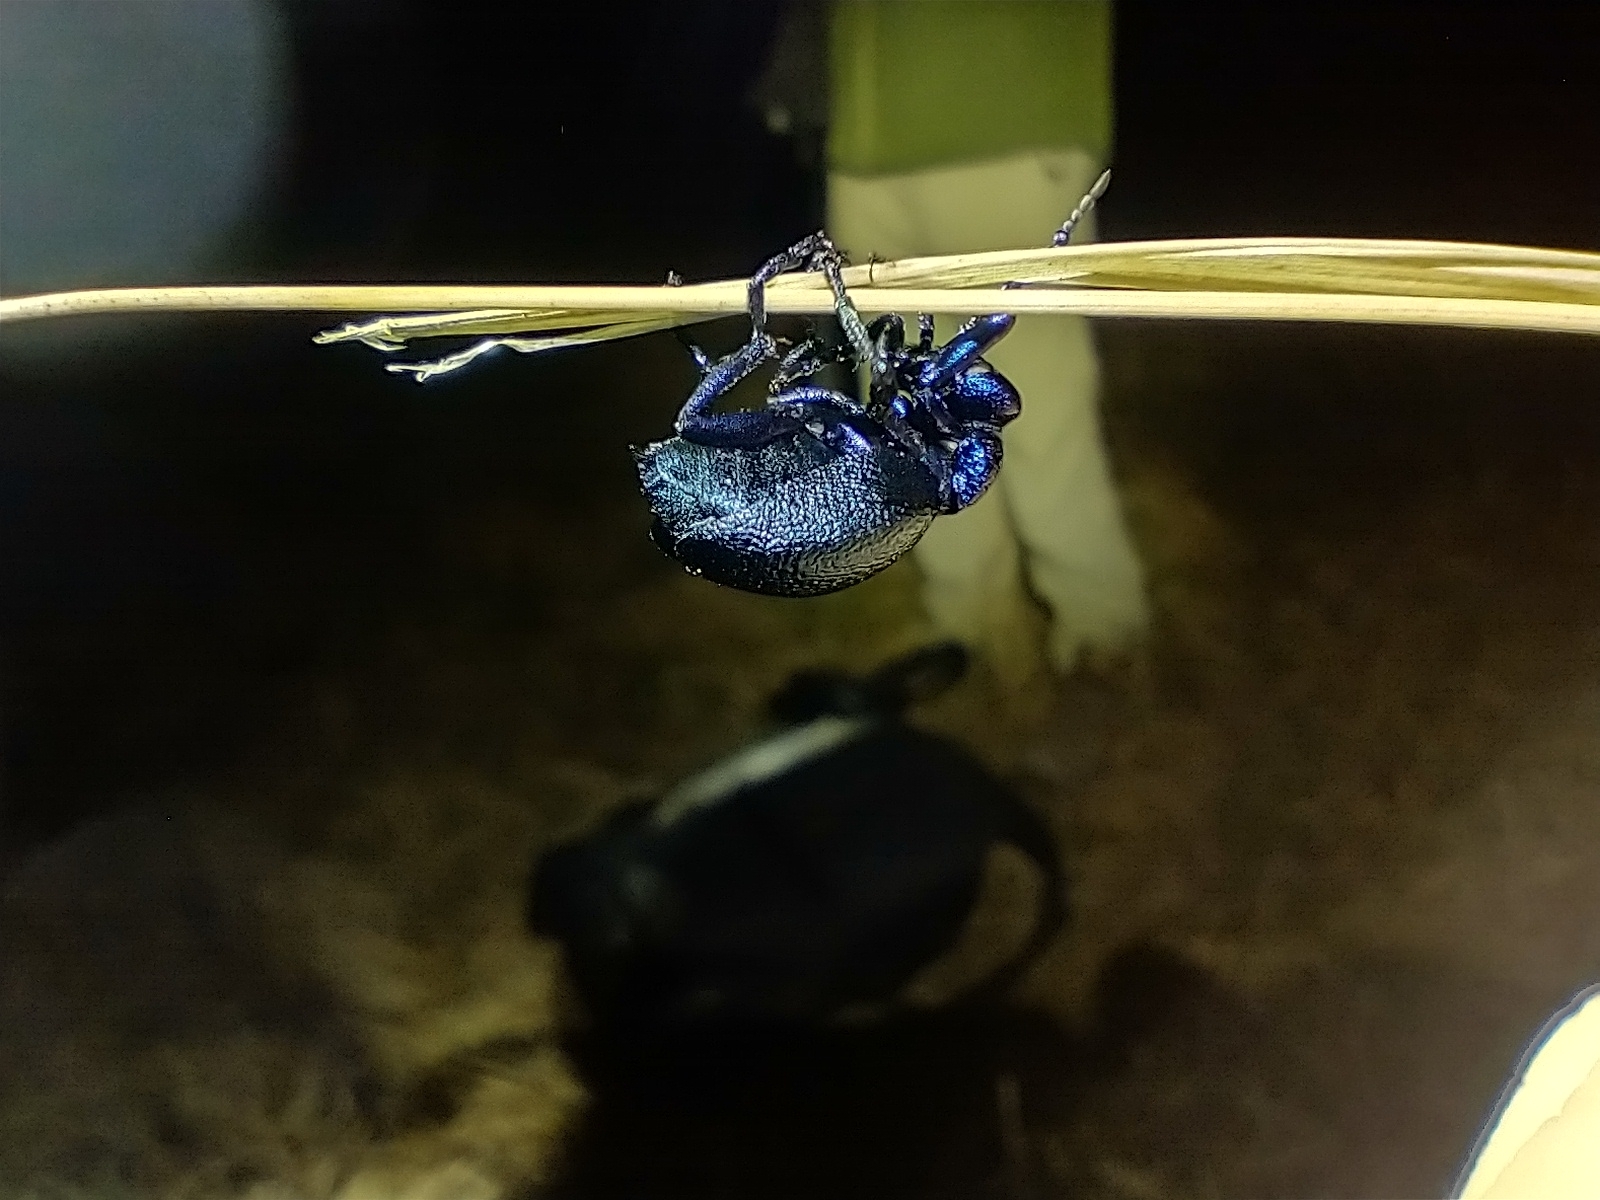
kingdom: Animalia
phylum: Arthropoda
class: Insecta
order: Coleoptera
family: Meloidae
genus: Meloe
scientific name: Meloe proscarabaeus
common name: Black oil-beetle
